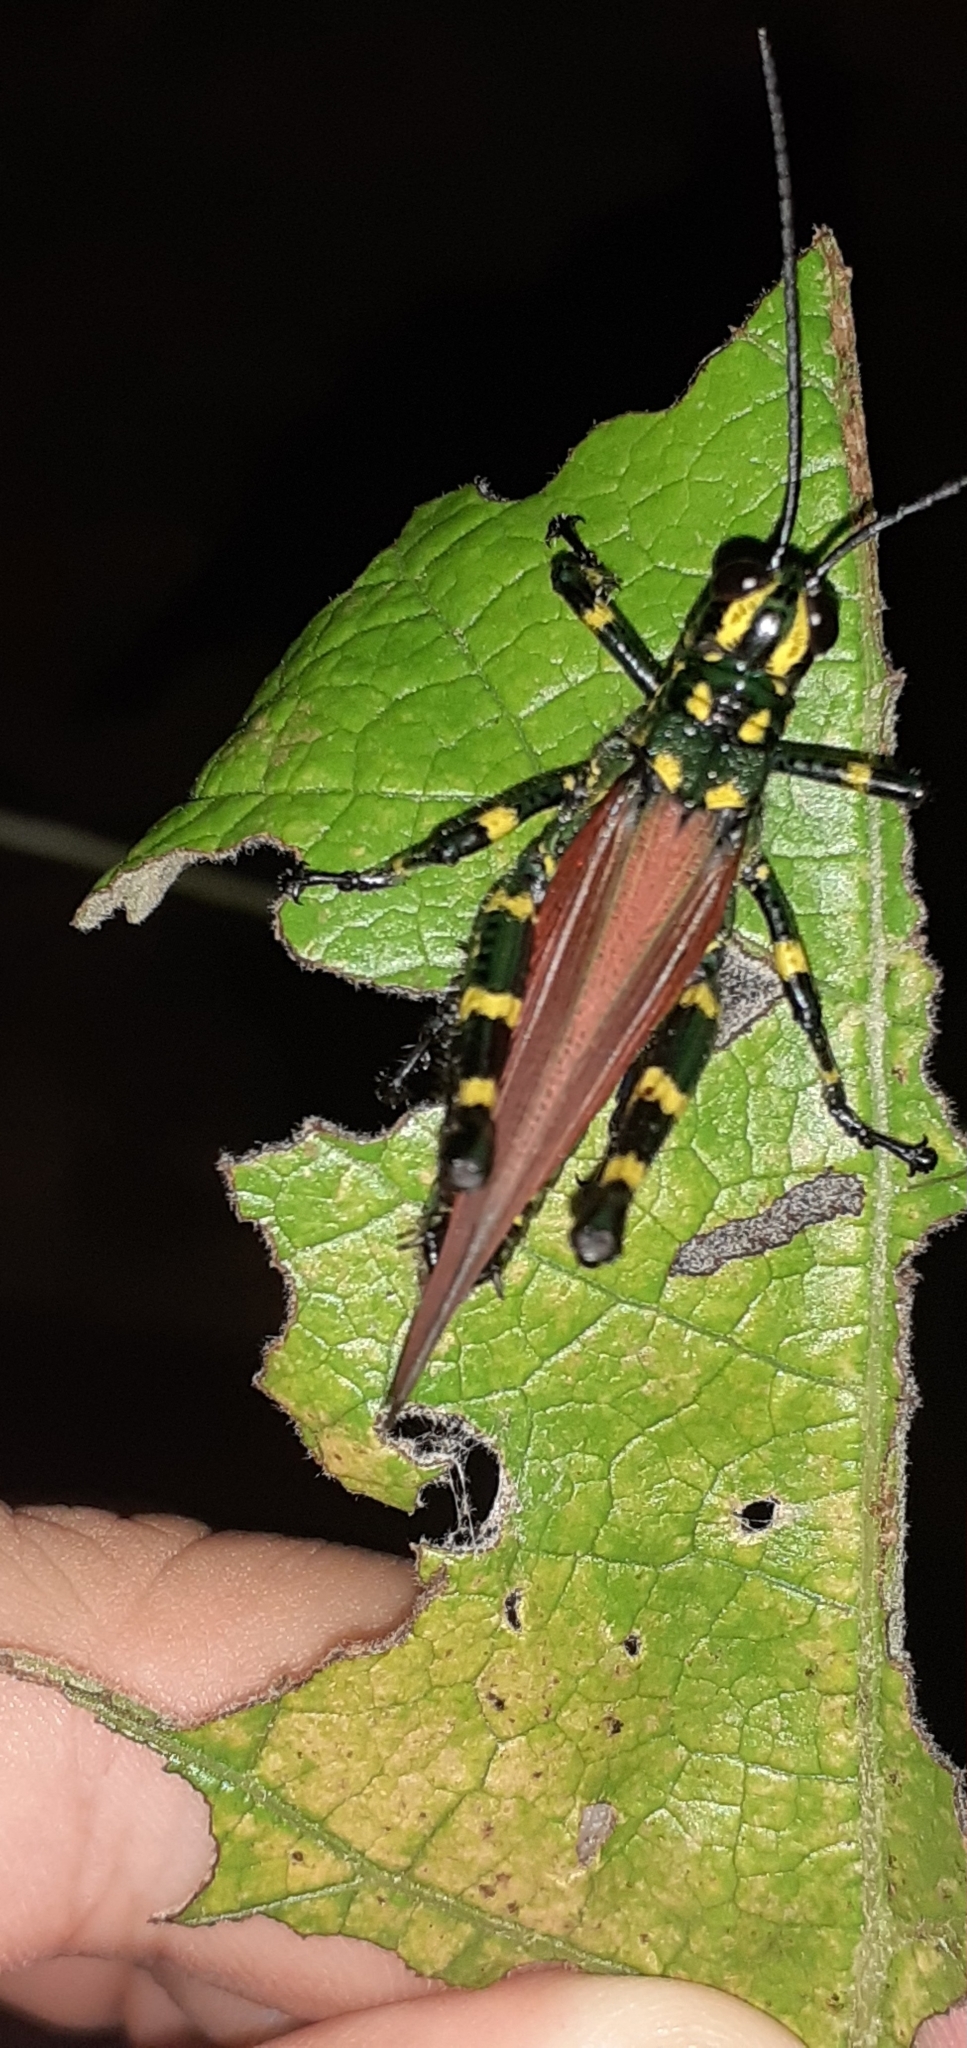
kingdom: Animalia
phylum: Arthropoda
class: Insecta
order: Orthoptera
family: Romaleidae
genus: Chromacris
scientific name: Chromacris speciosa
